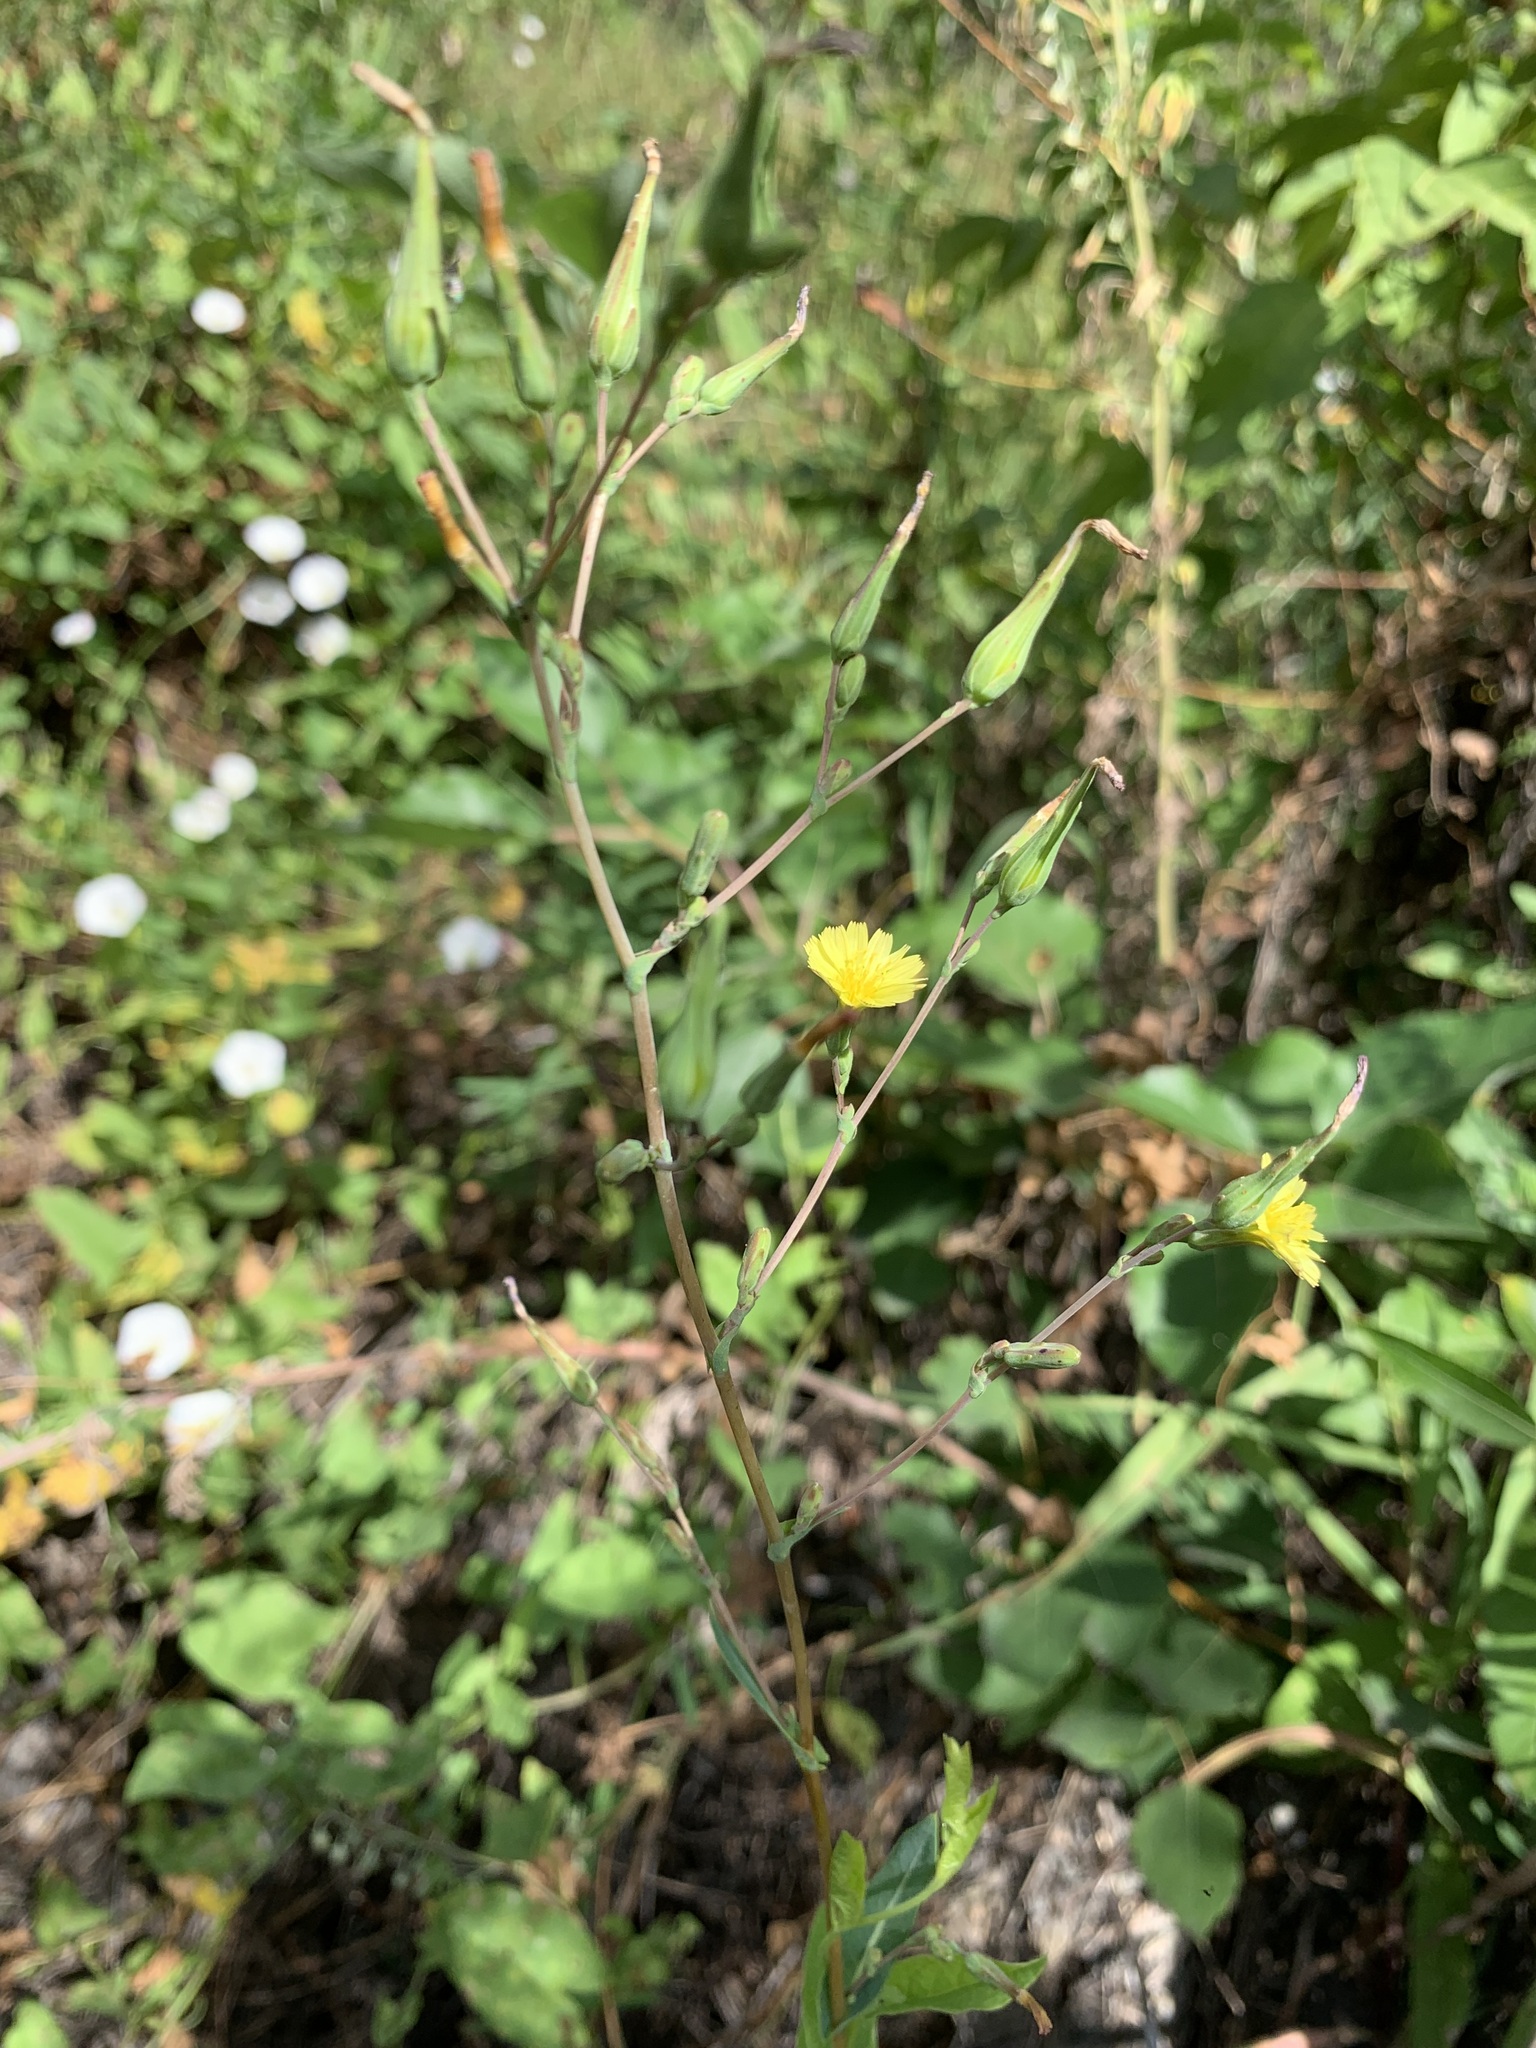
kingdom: Plantae
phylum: Tracheophyta
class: Magnoliopsida
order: Asterales
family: Asteraceae
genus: Lactuca
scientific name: Lactuca serriola
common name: Prickly lettuce
